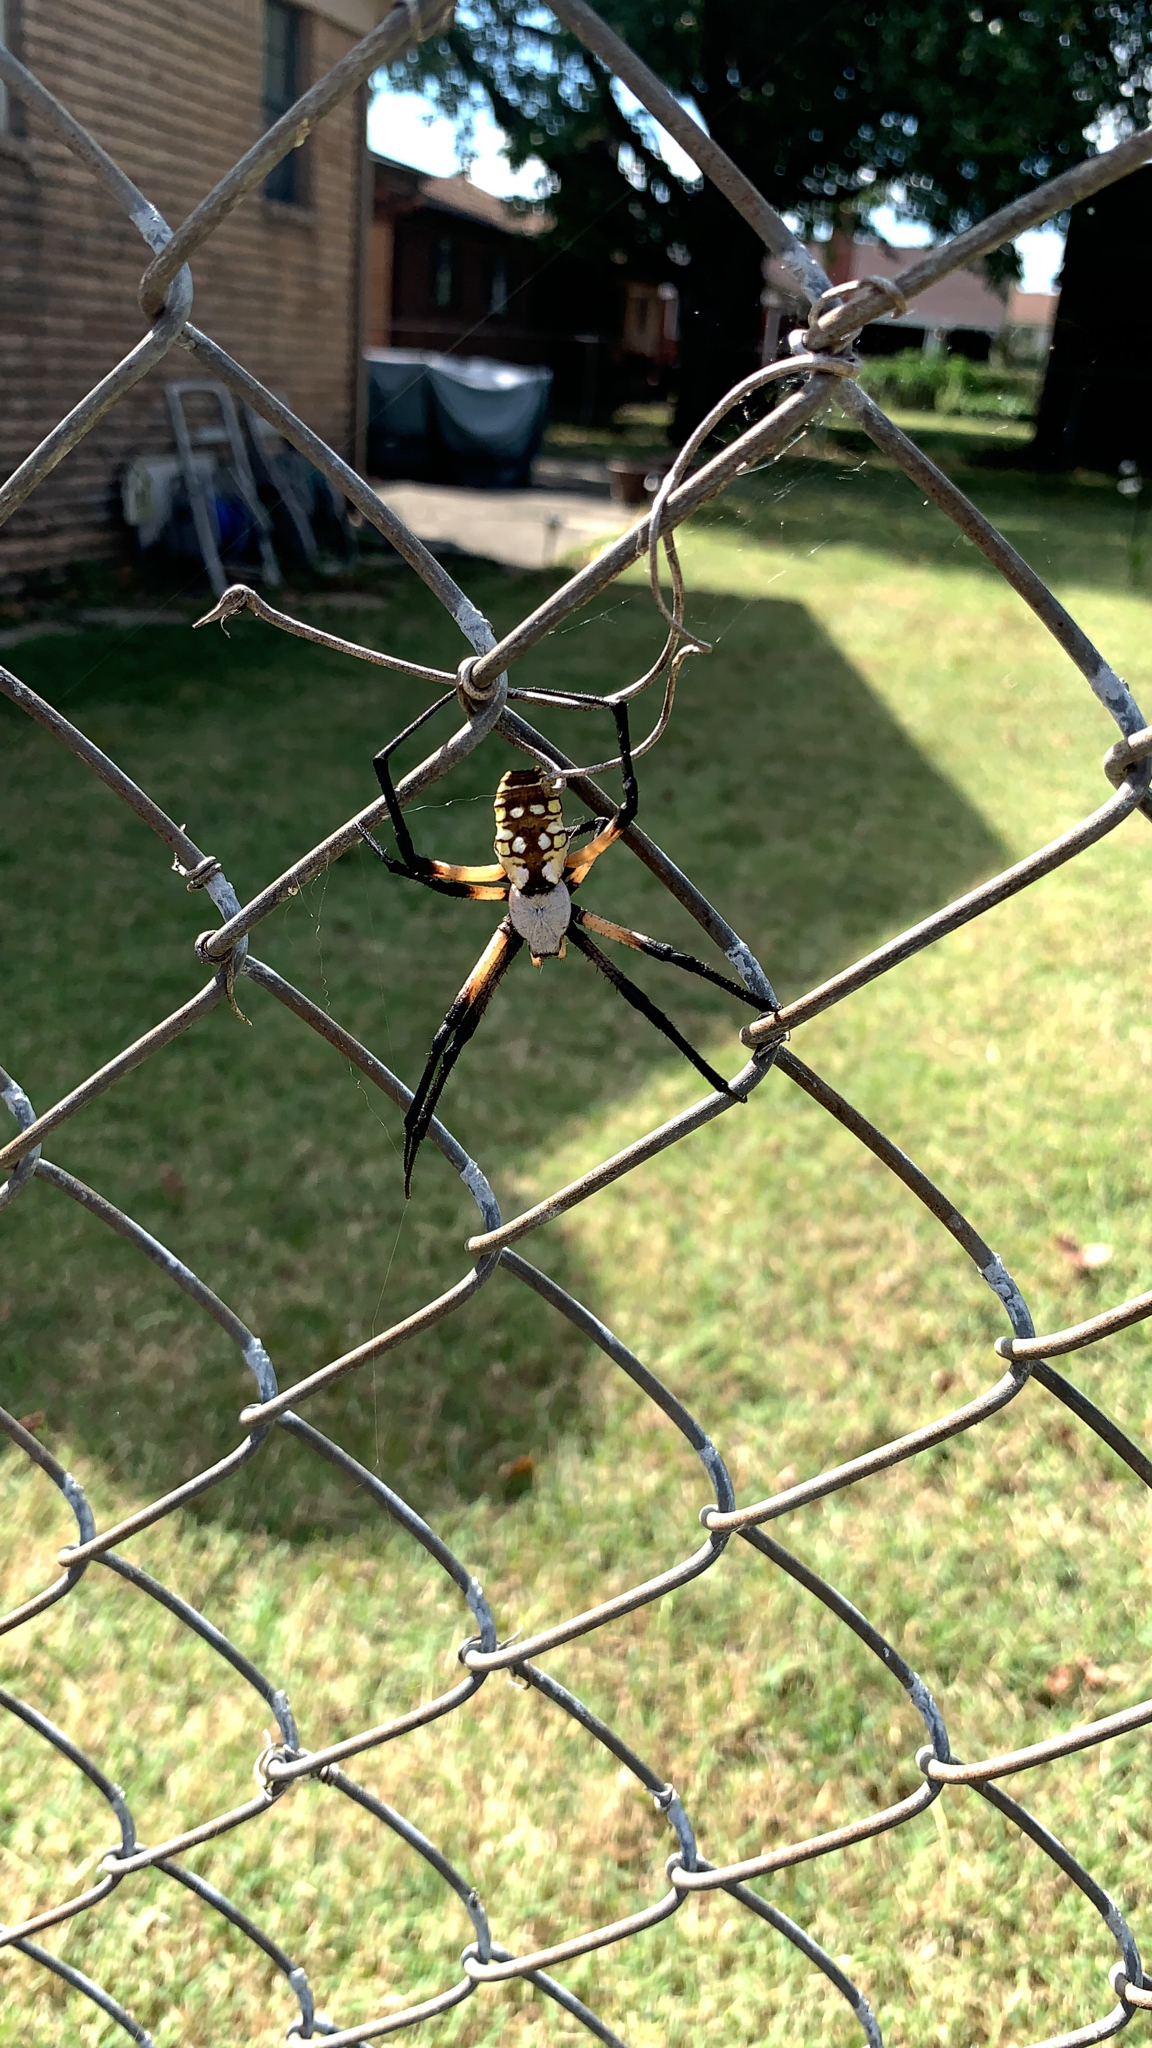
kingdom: Animalia
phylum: Arthropoda
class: Arachnida
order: Araneae
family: Araneidae
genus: Argiope
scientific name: Argiope aurantia
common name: Orb weavers
